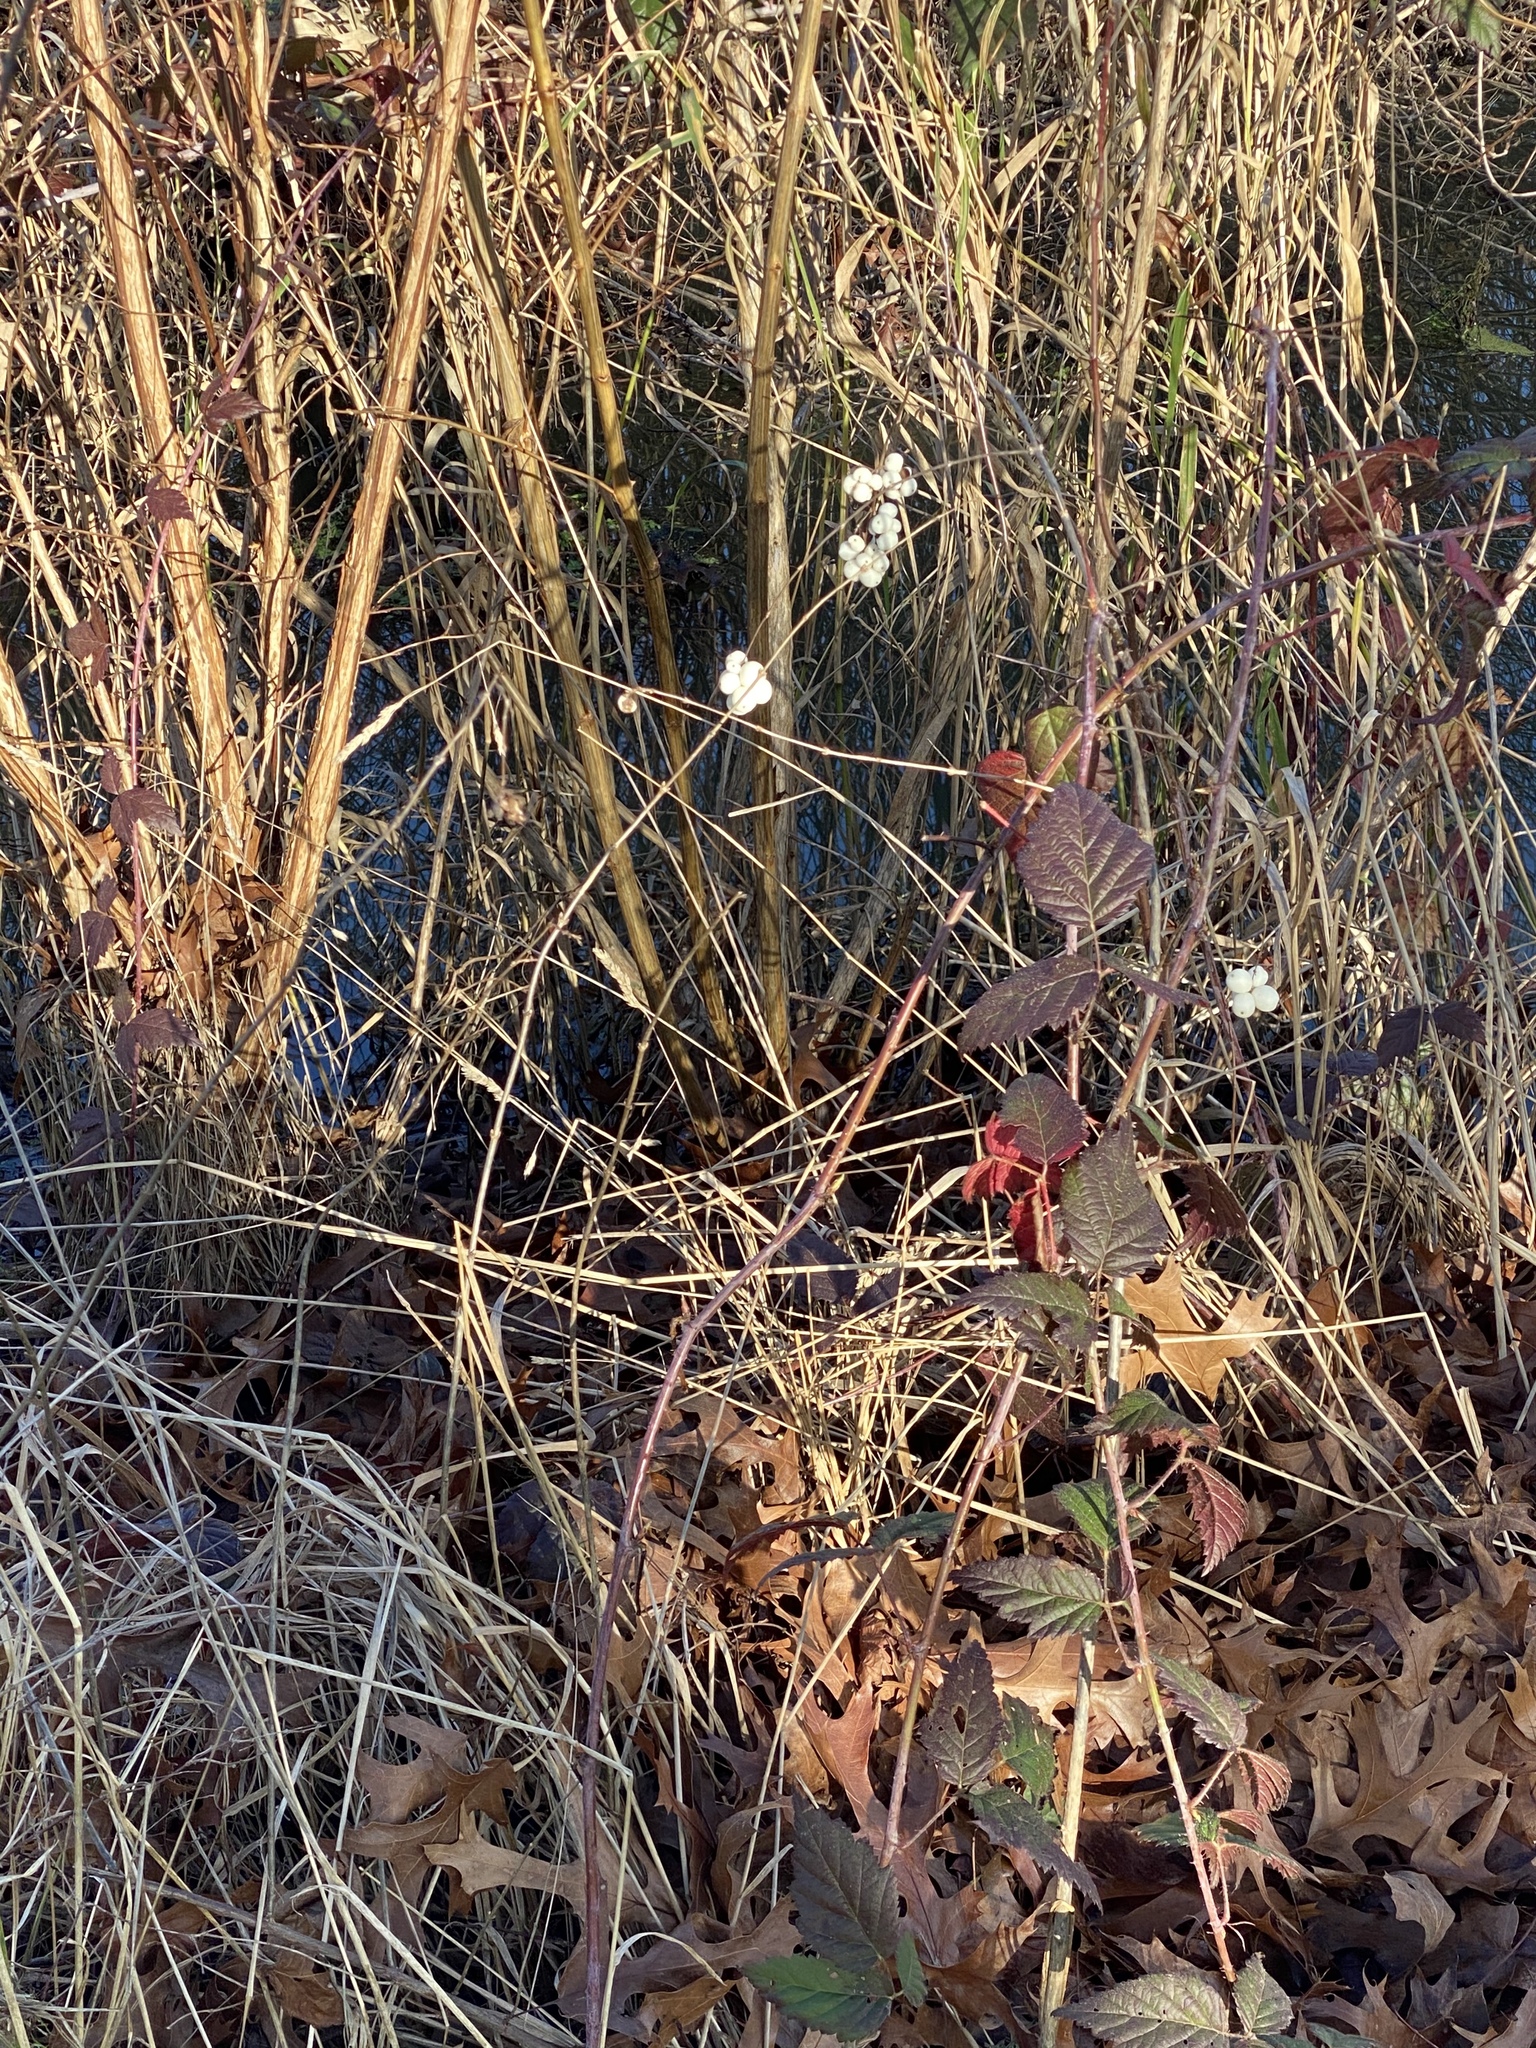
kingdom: Plantae
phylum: Tracheophyta
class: Magnoliopsida
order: Dipsacales
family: Caprifoliaceae
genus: Symphoricarpos
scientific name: Symphoricarpos albus
